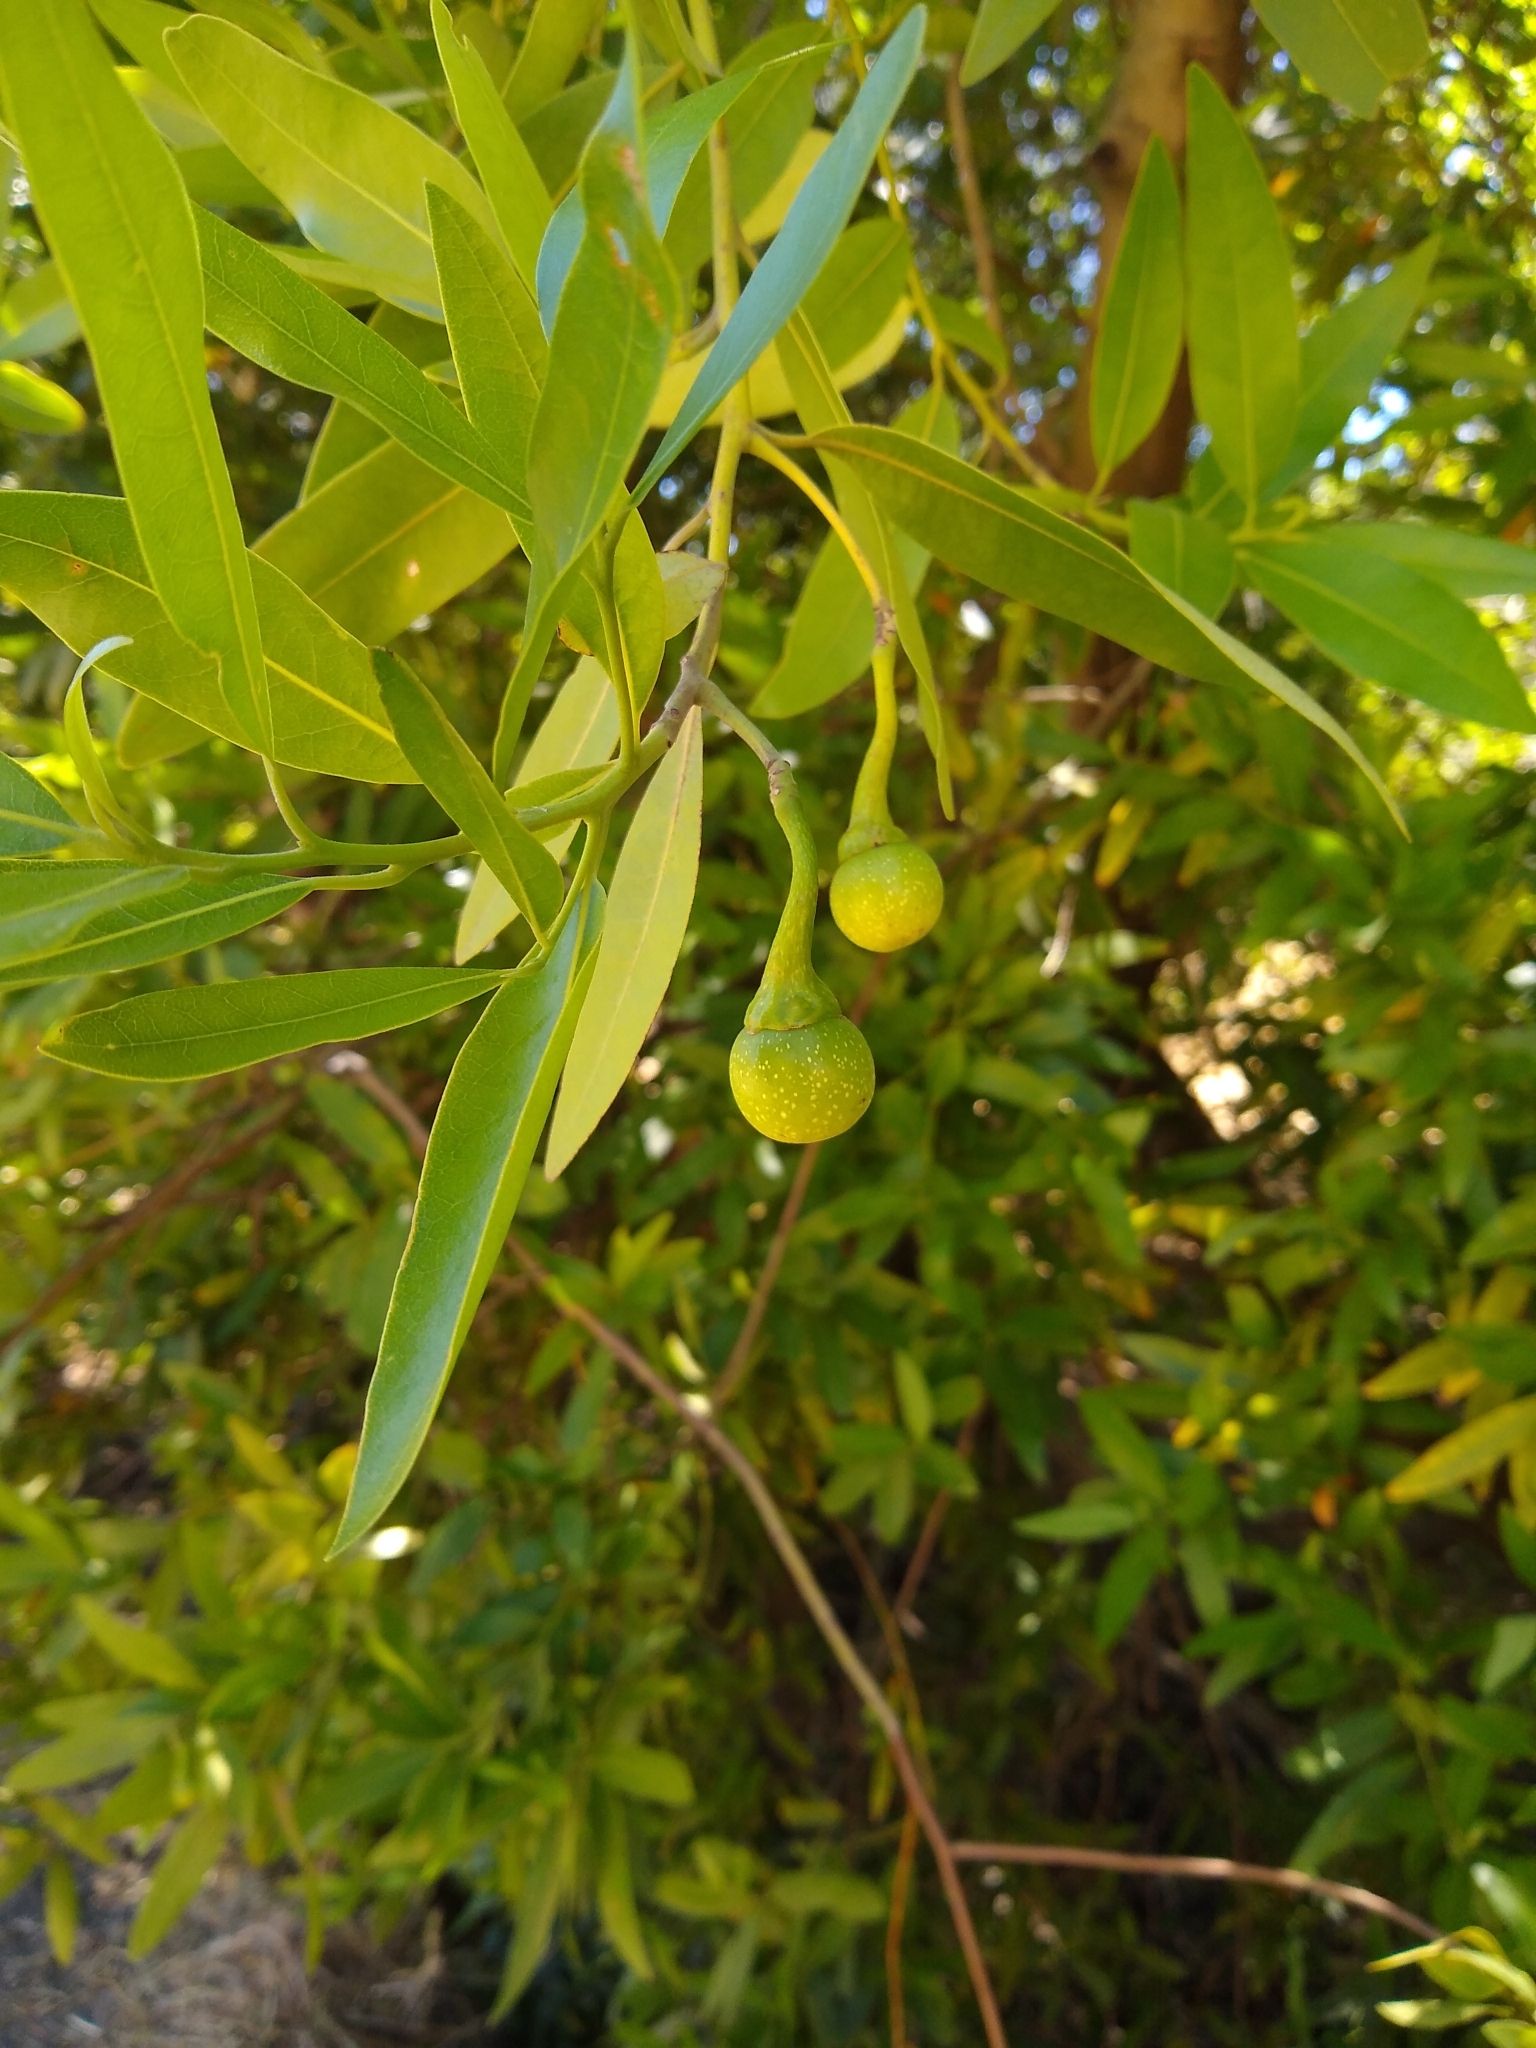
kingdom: Plantae
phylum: Tracheophyta
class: Magnoliopsida
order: Laurales
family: Lauraceae
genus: Umbellularia
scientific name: Umbellularia californica
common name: California bay
